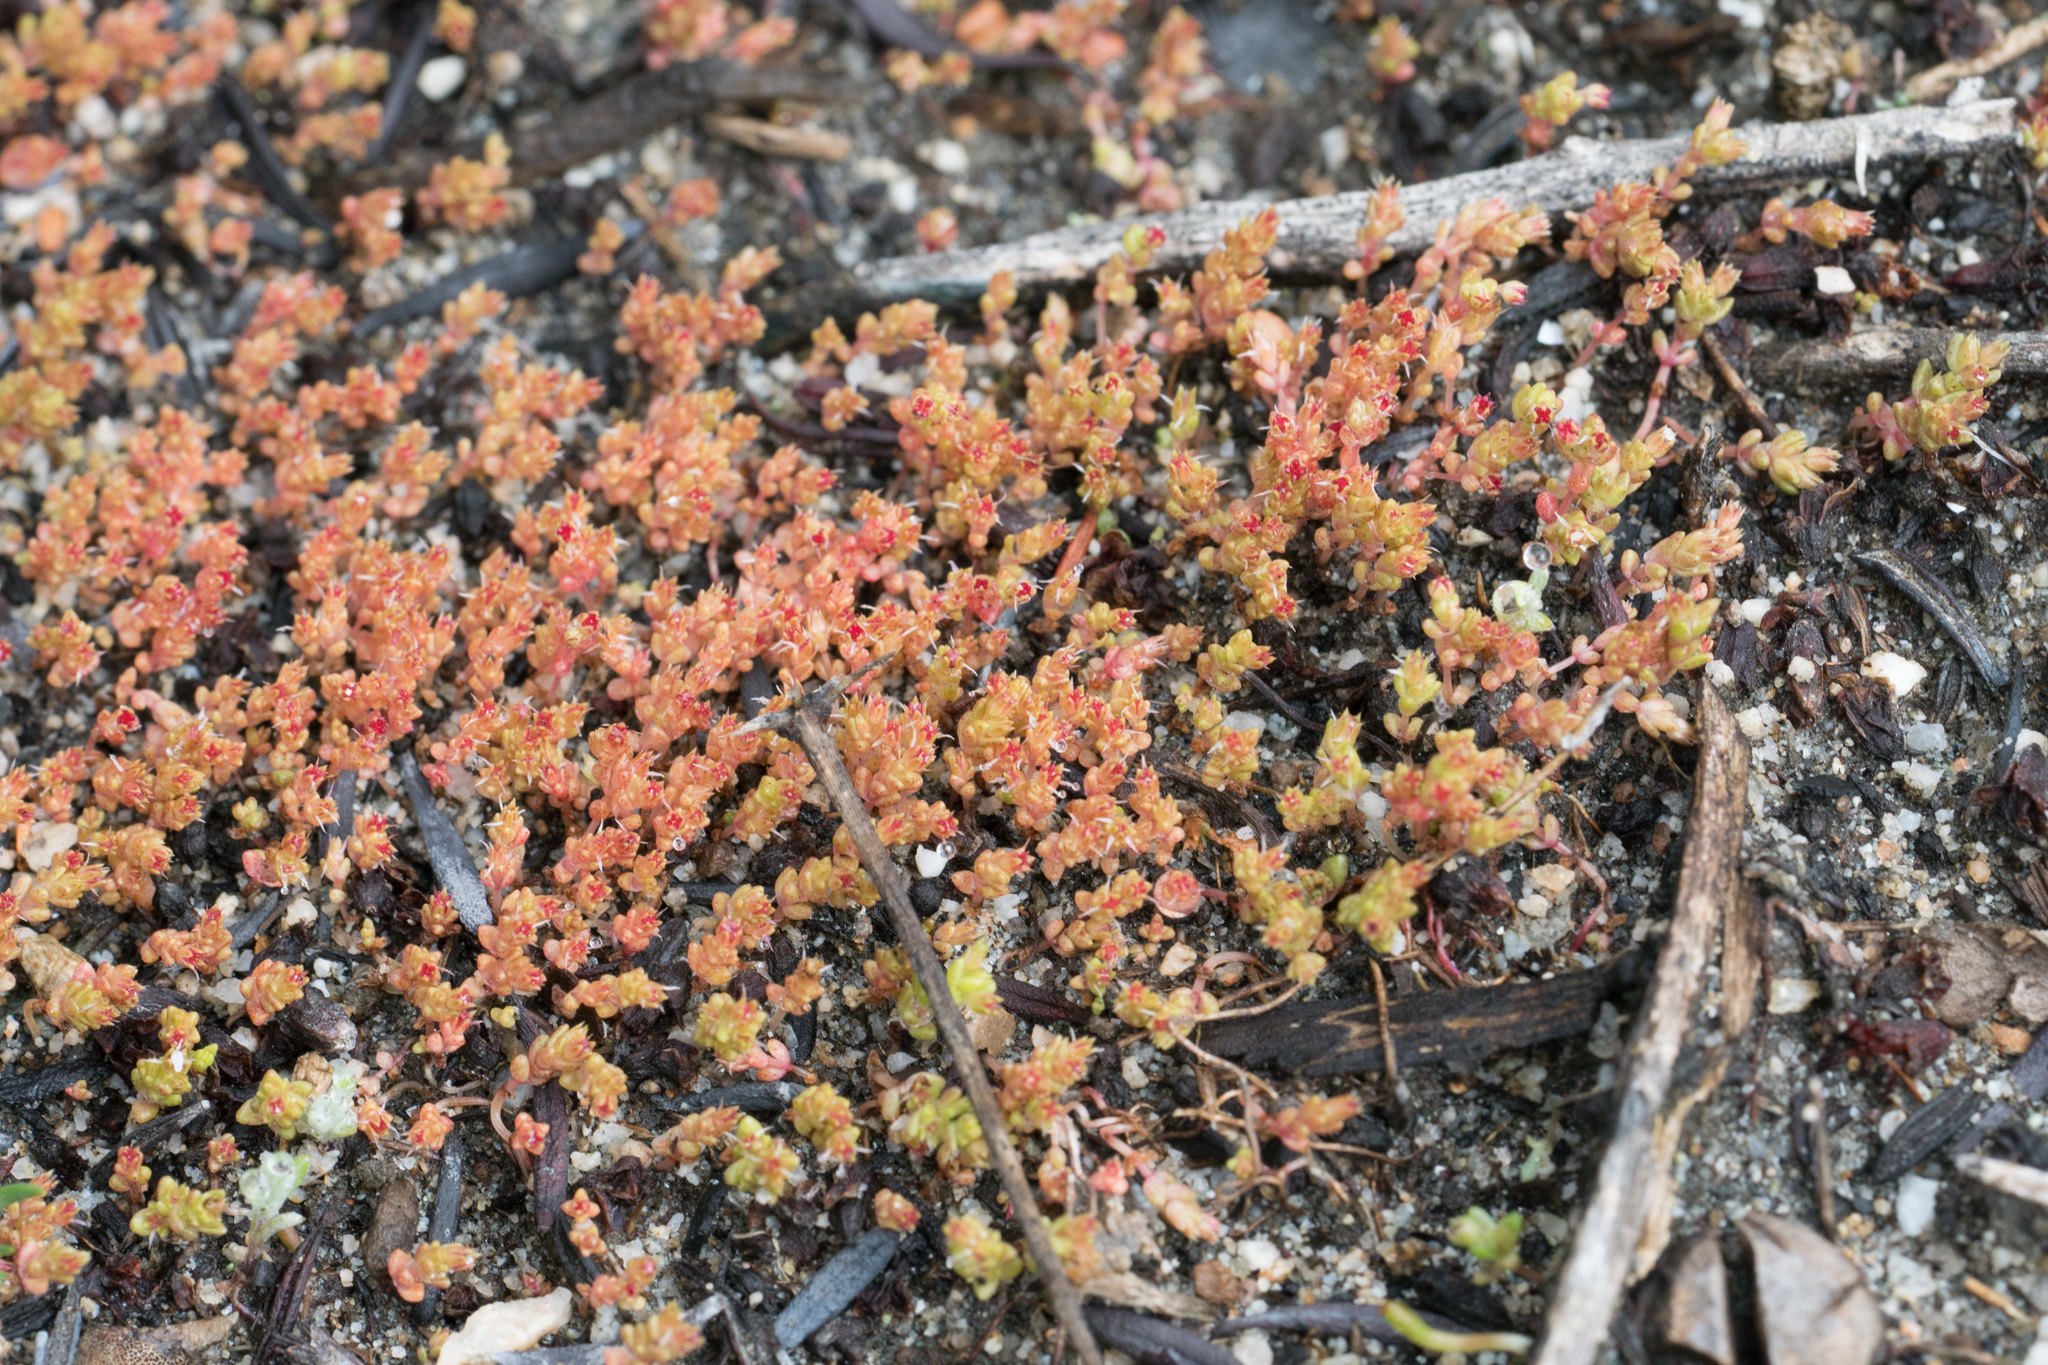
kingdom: Plantae
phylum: Tracheophyta
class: Magnoliopsida
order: Saxifragales
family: Crassulaceae
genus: Crassula
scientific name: Crassula connata
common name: Erect pygmyweed
